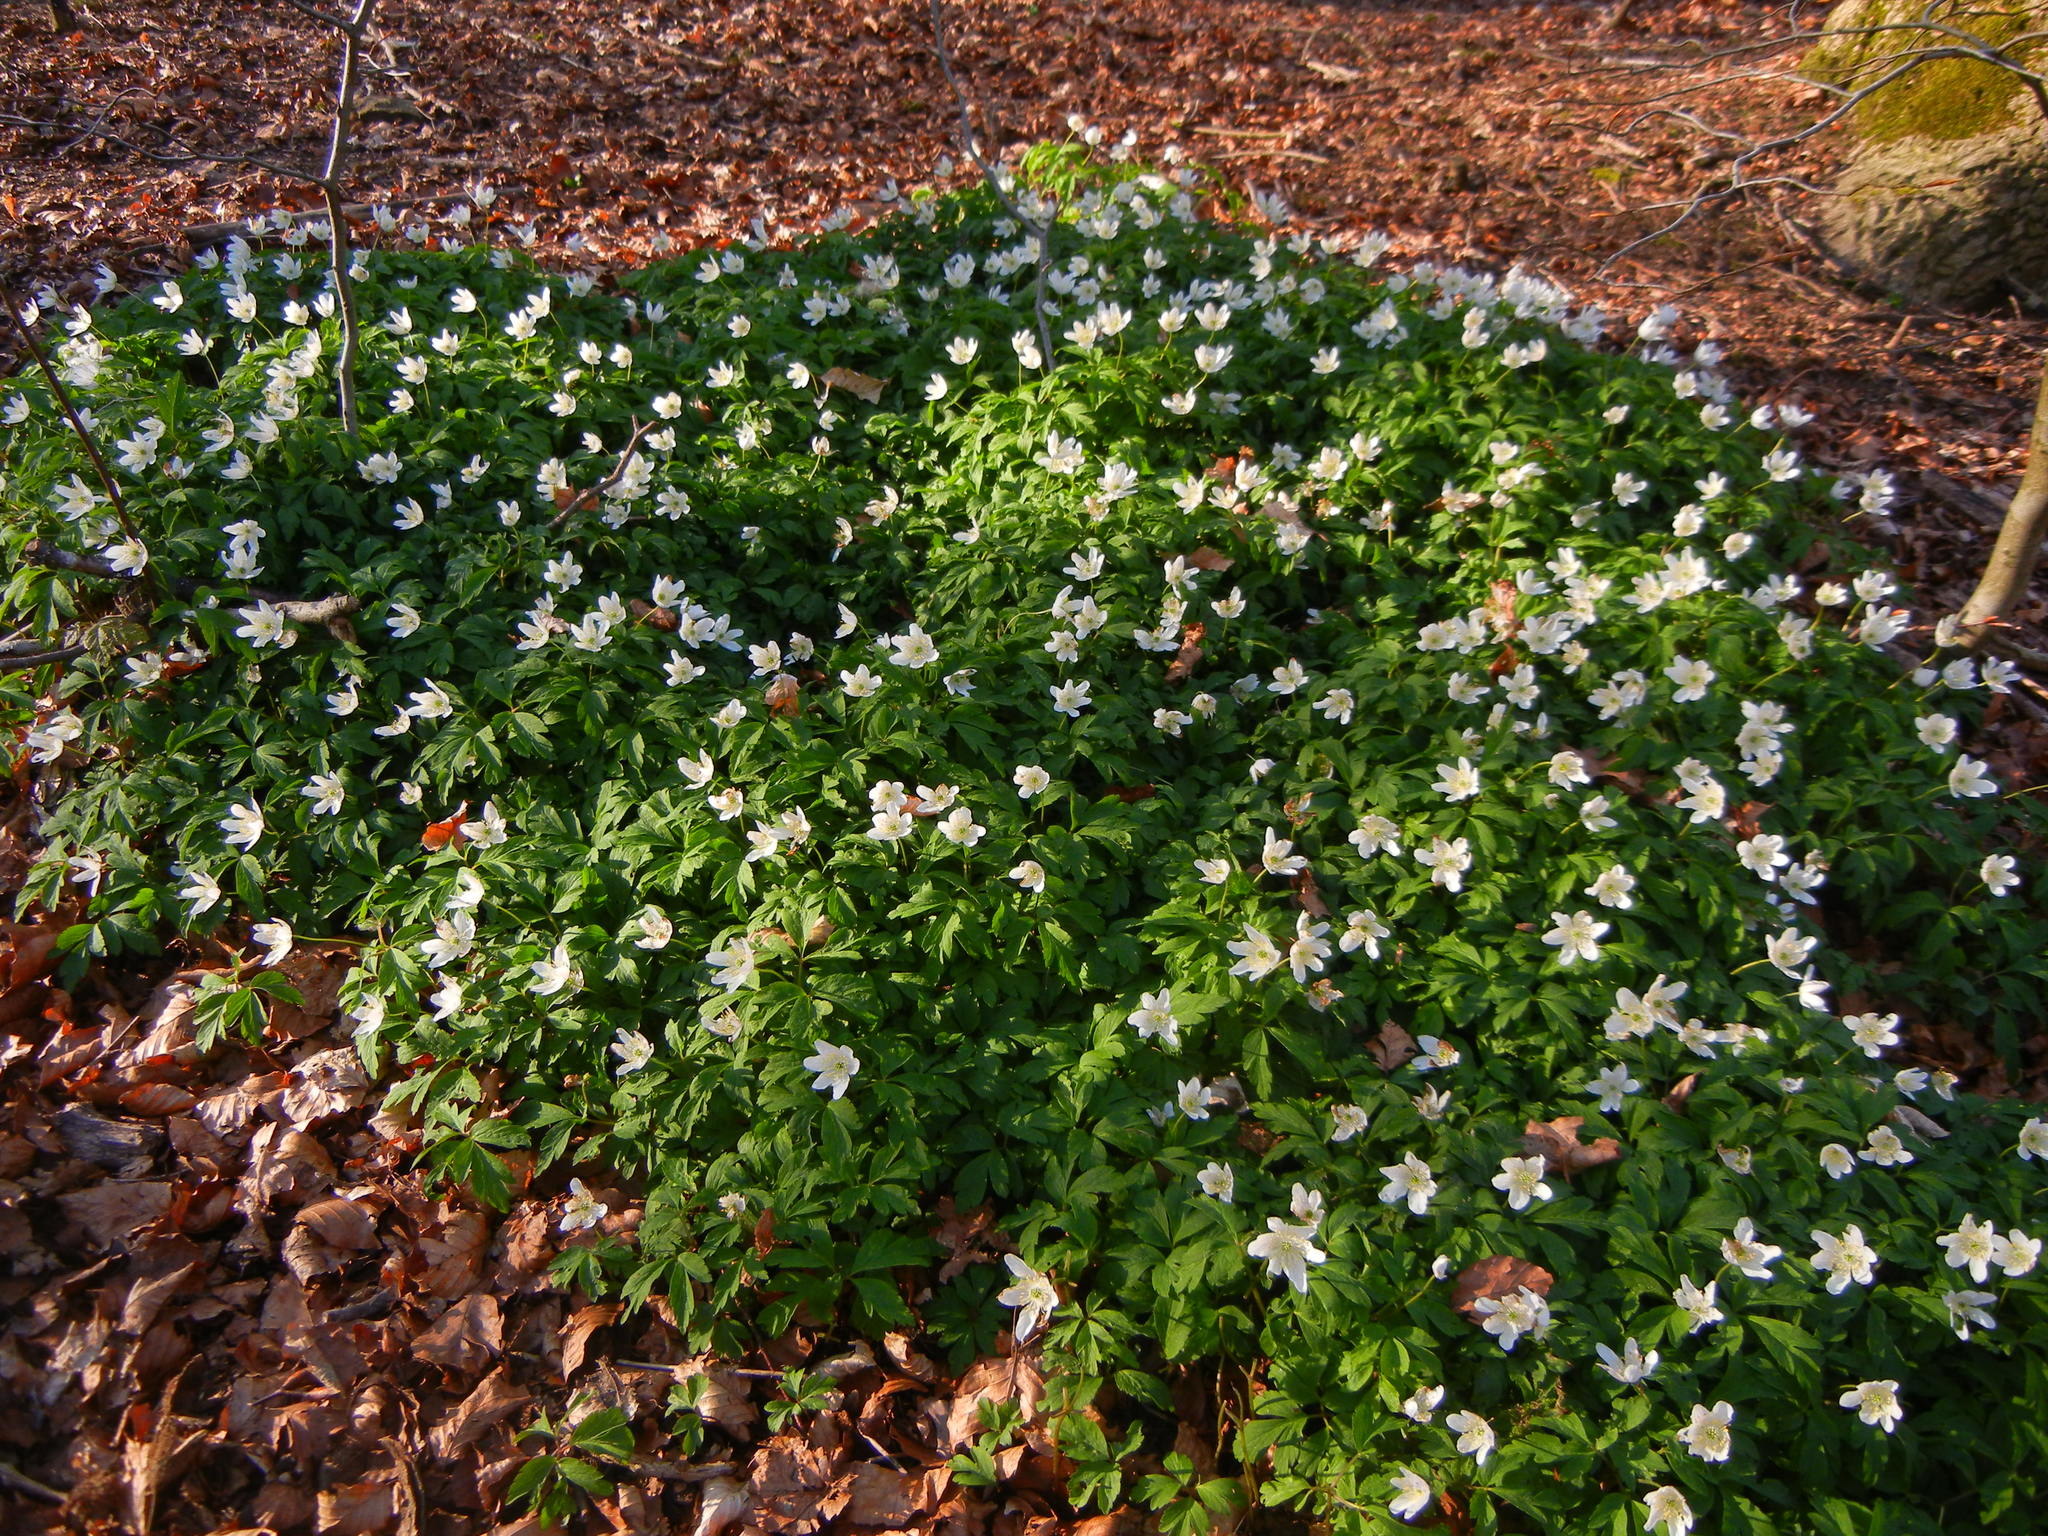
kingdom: Plantae
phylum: Tracheophyta
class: Magnoliopsida
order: Ranunculales
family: Ranunculaceae
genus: Anemone
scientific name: Anemone nemorosa
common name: Wood anemone
